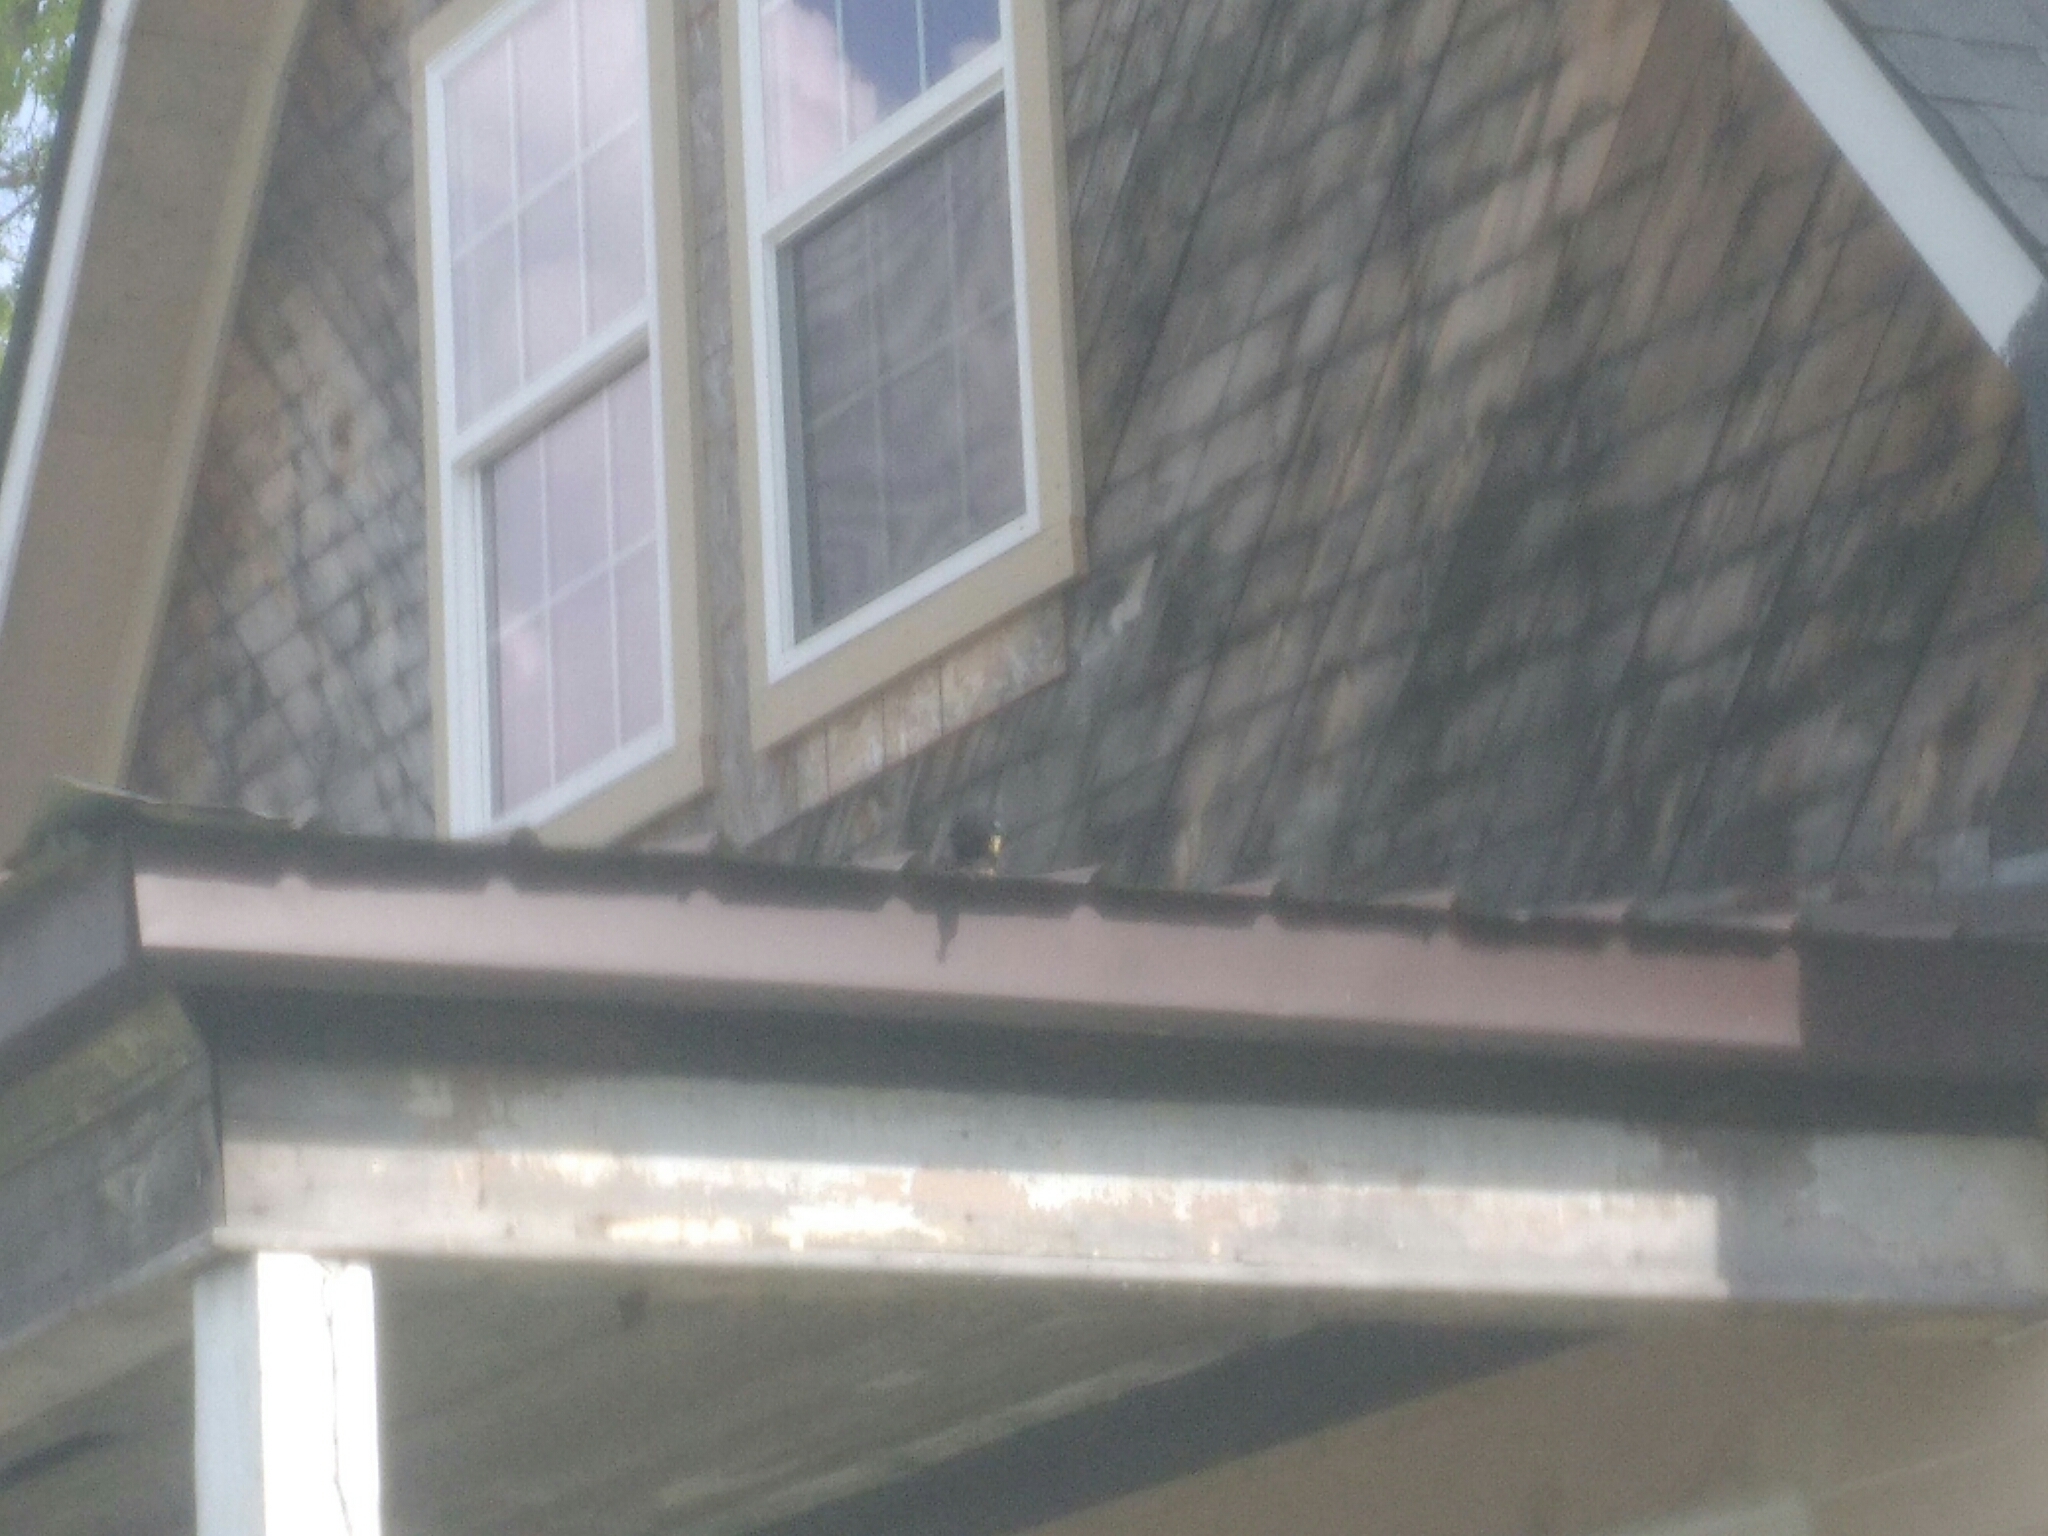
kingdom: Animalia
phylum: Chordata
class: Aves
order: Passeriformes
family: Sturnidae
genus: Sturnus
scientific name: Sturnus vulgaris
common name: Common starling
